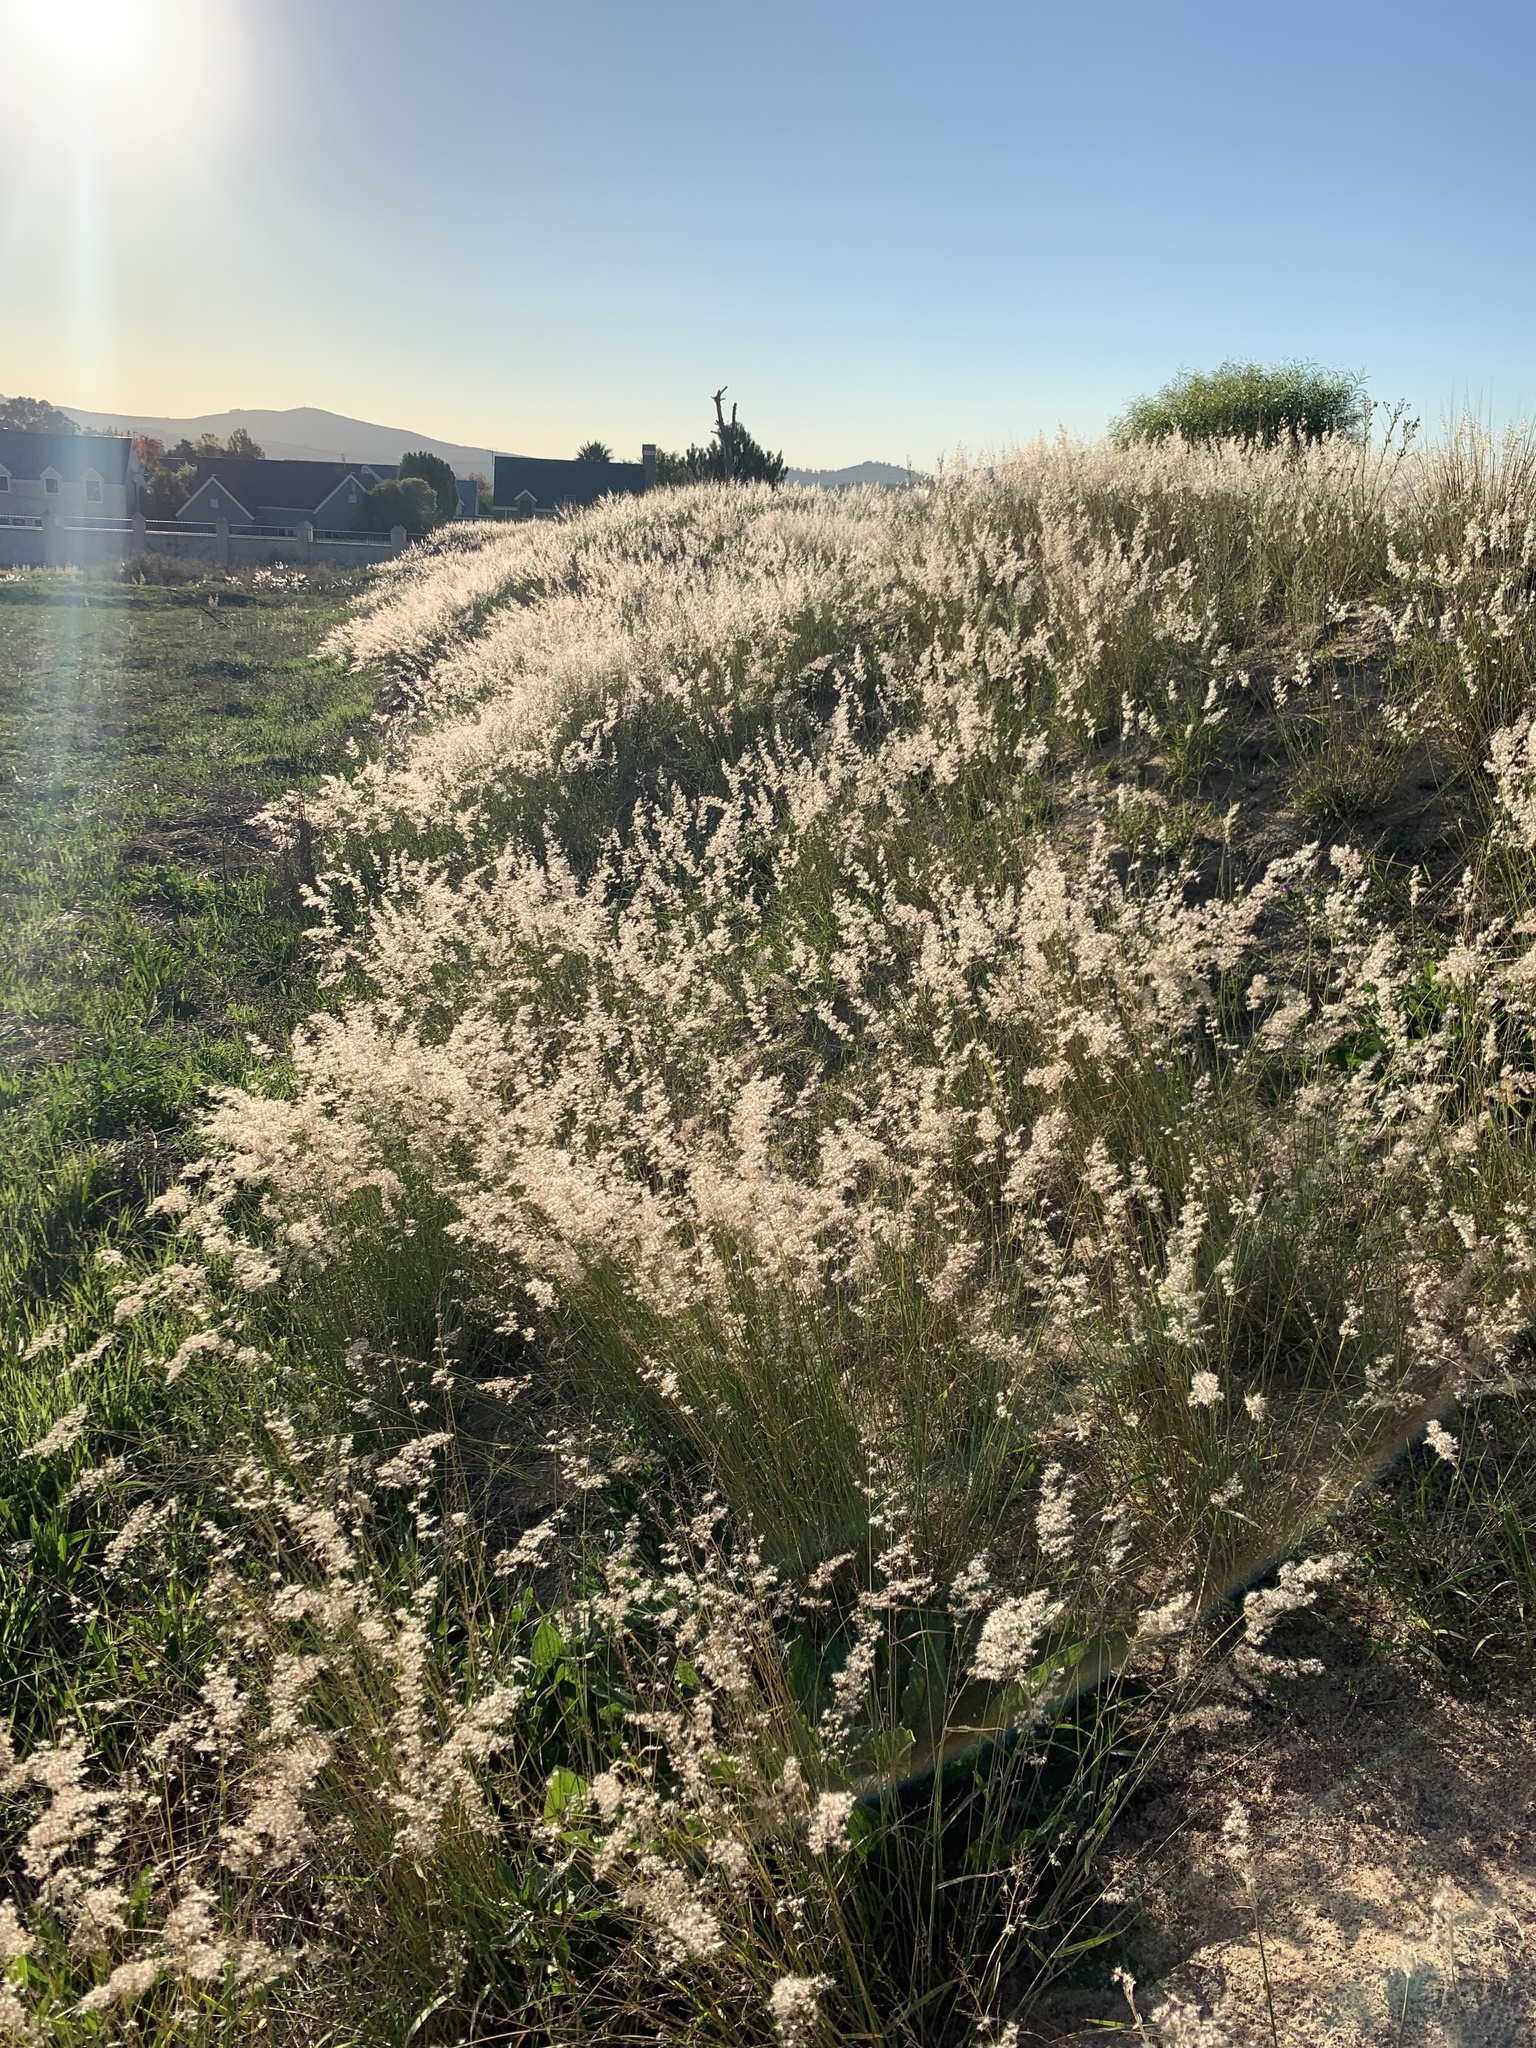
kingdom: Plantae
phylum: Tracheophyta
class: Liliopsida
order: Poales
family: Poaceae
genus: Melinis
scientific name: Melinis repens
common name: Rose natal grass
